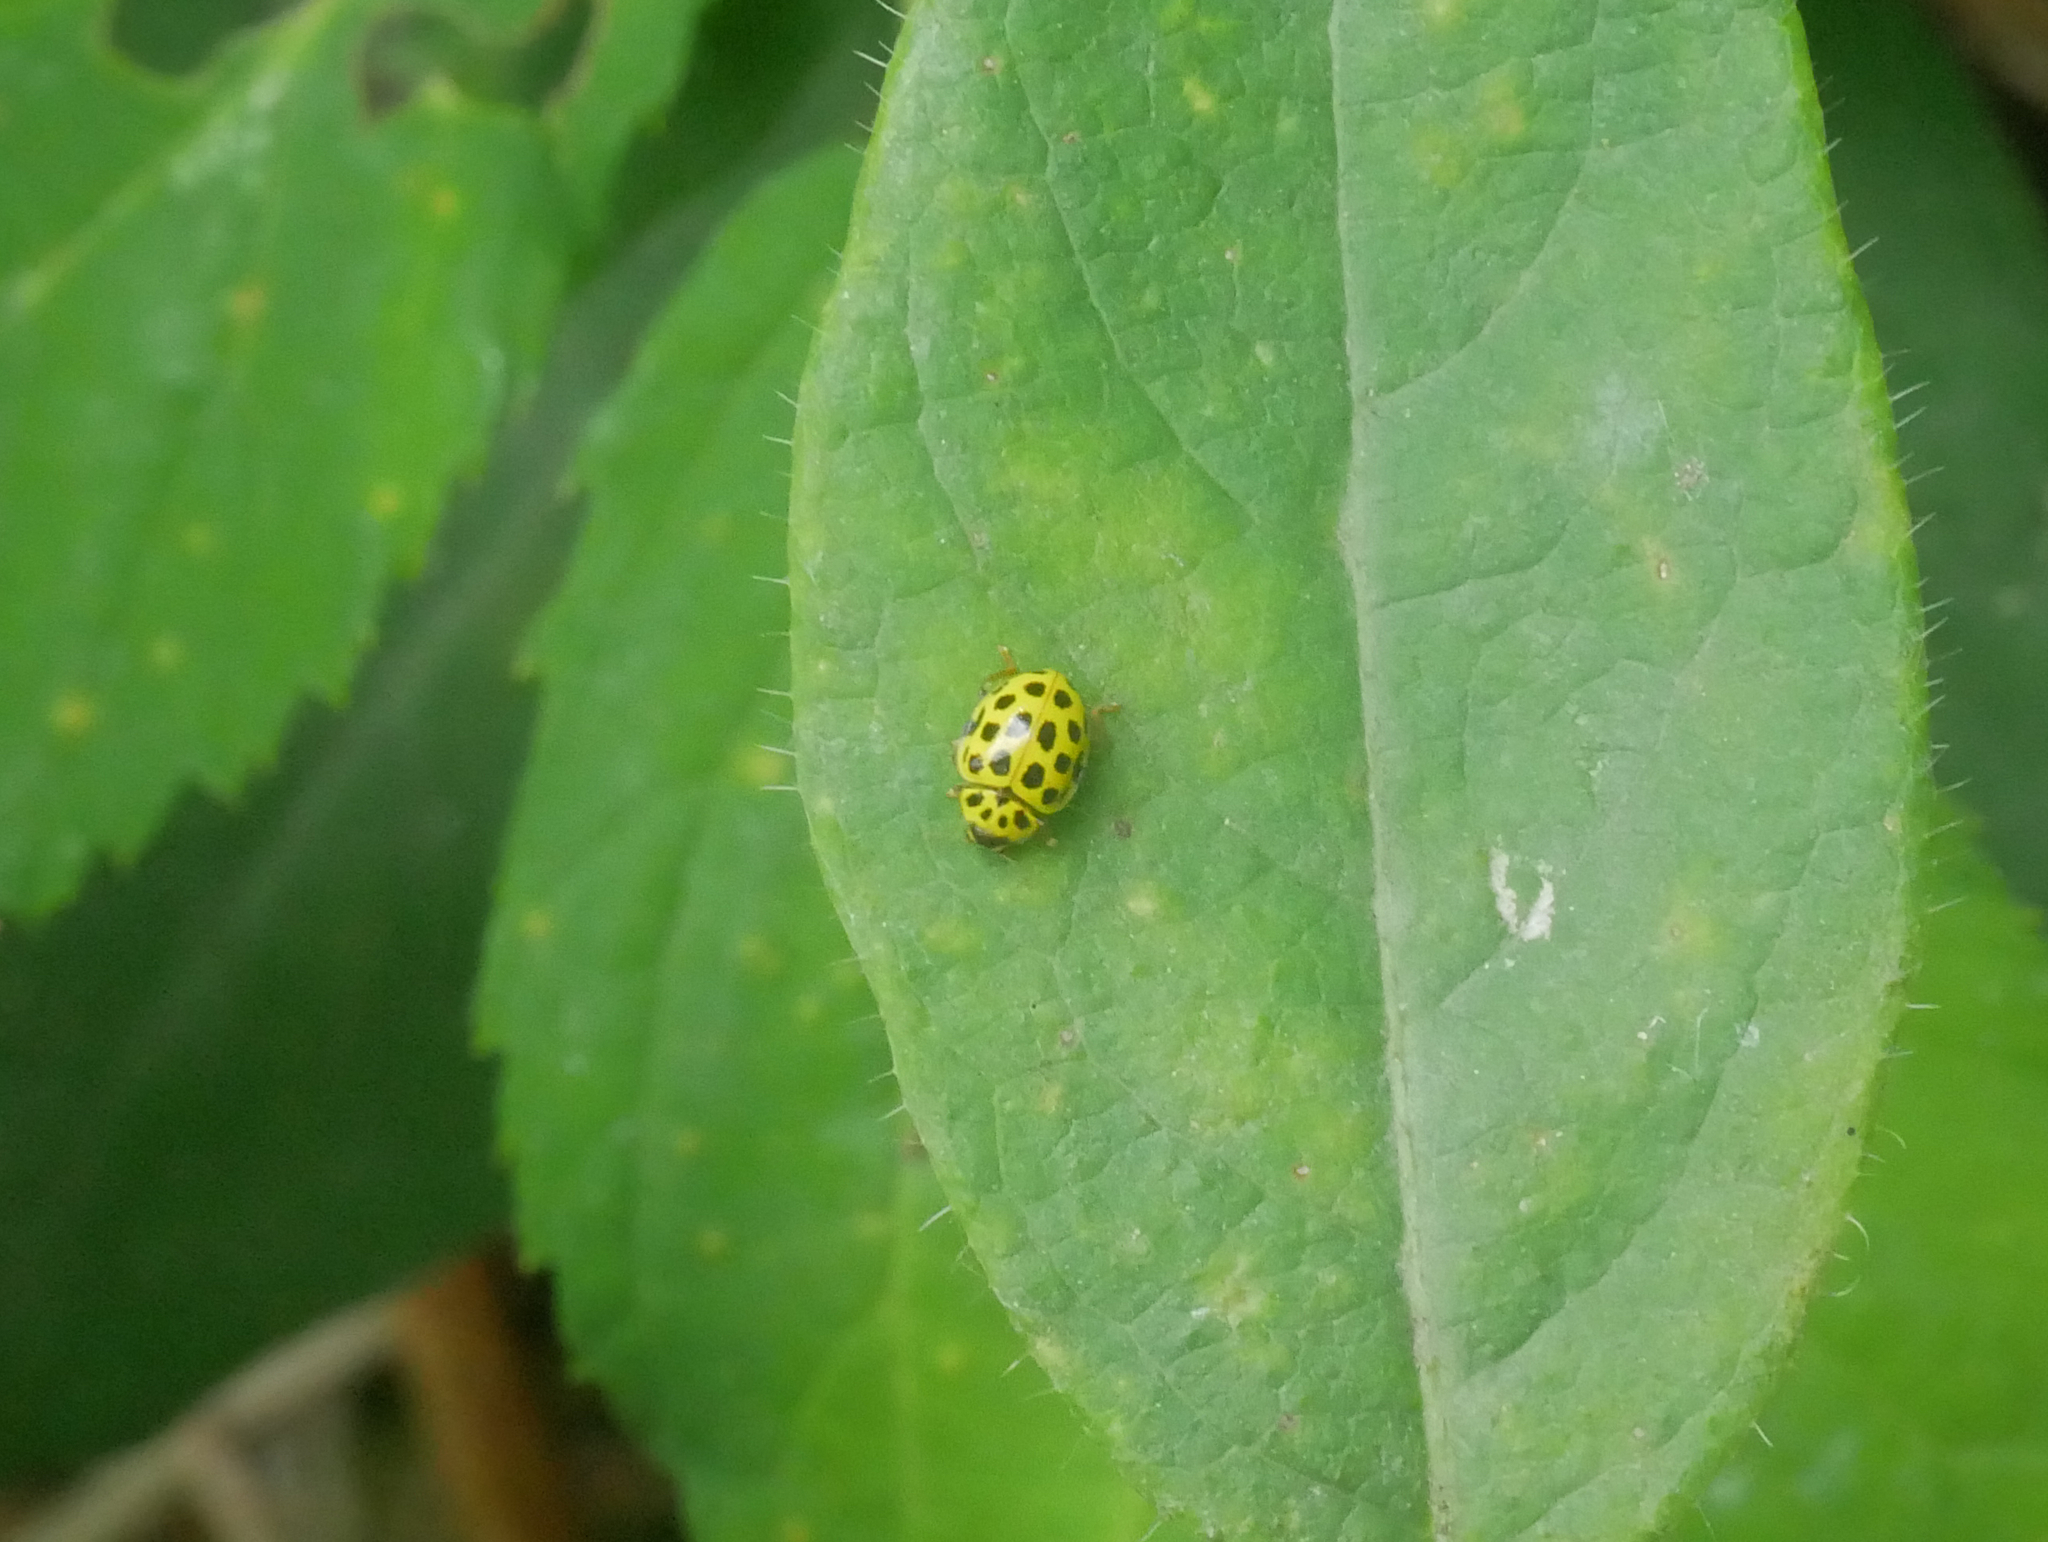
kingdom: Animalia
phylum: Arthropoda
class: Insecta
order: Coleoptera
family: Coccinellidae
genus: Psyllobora
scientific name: Psyllobora vigintiduopunctata
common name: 22-spot ladybird
